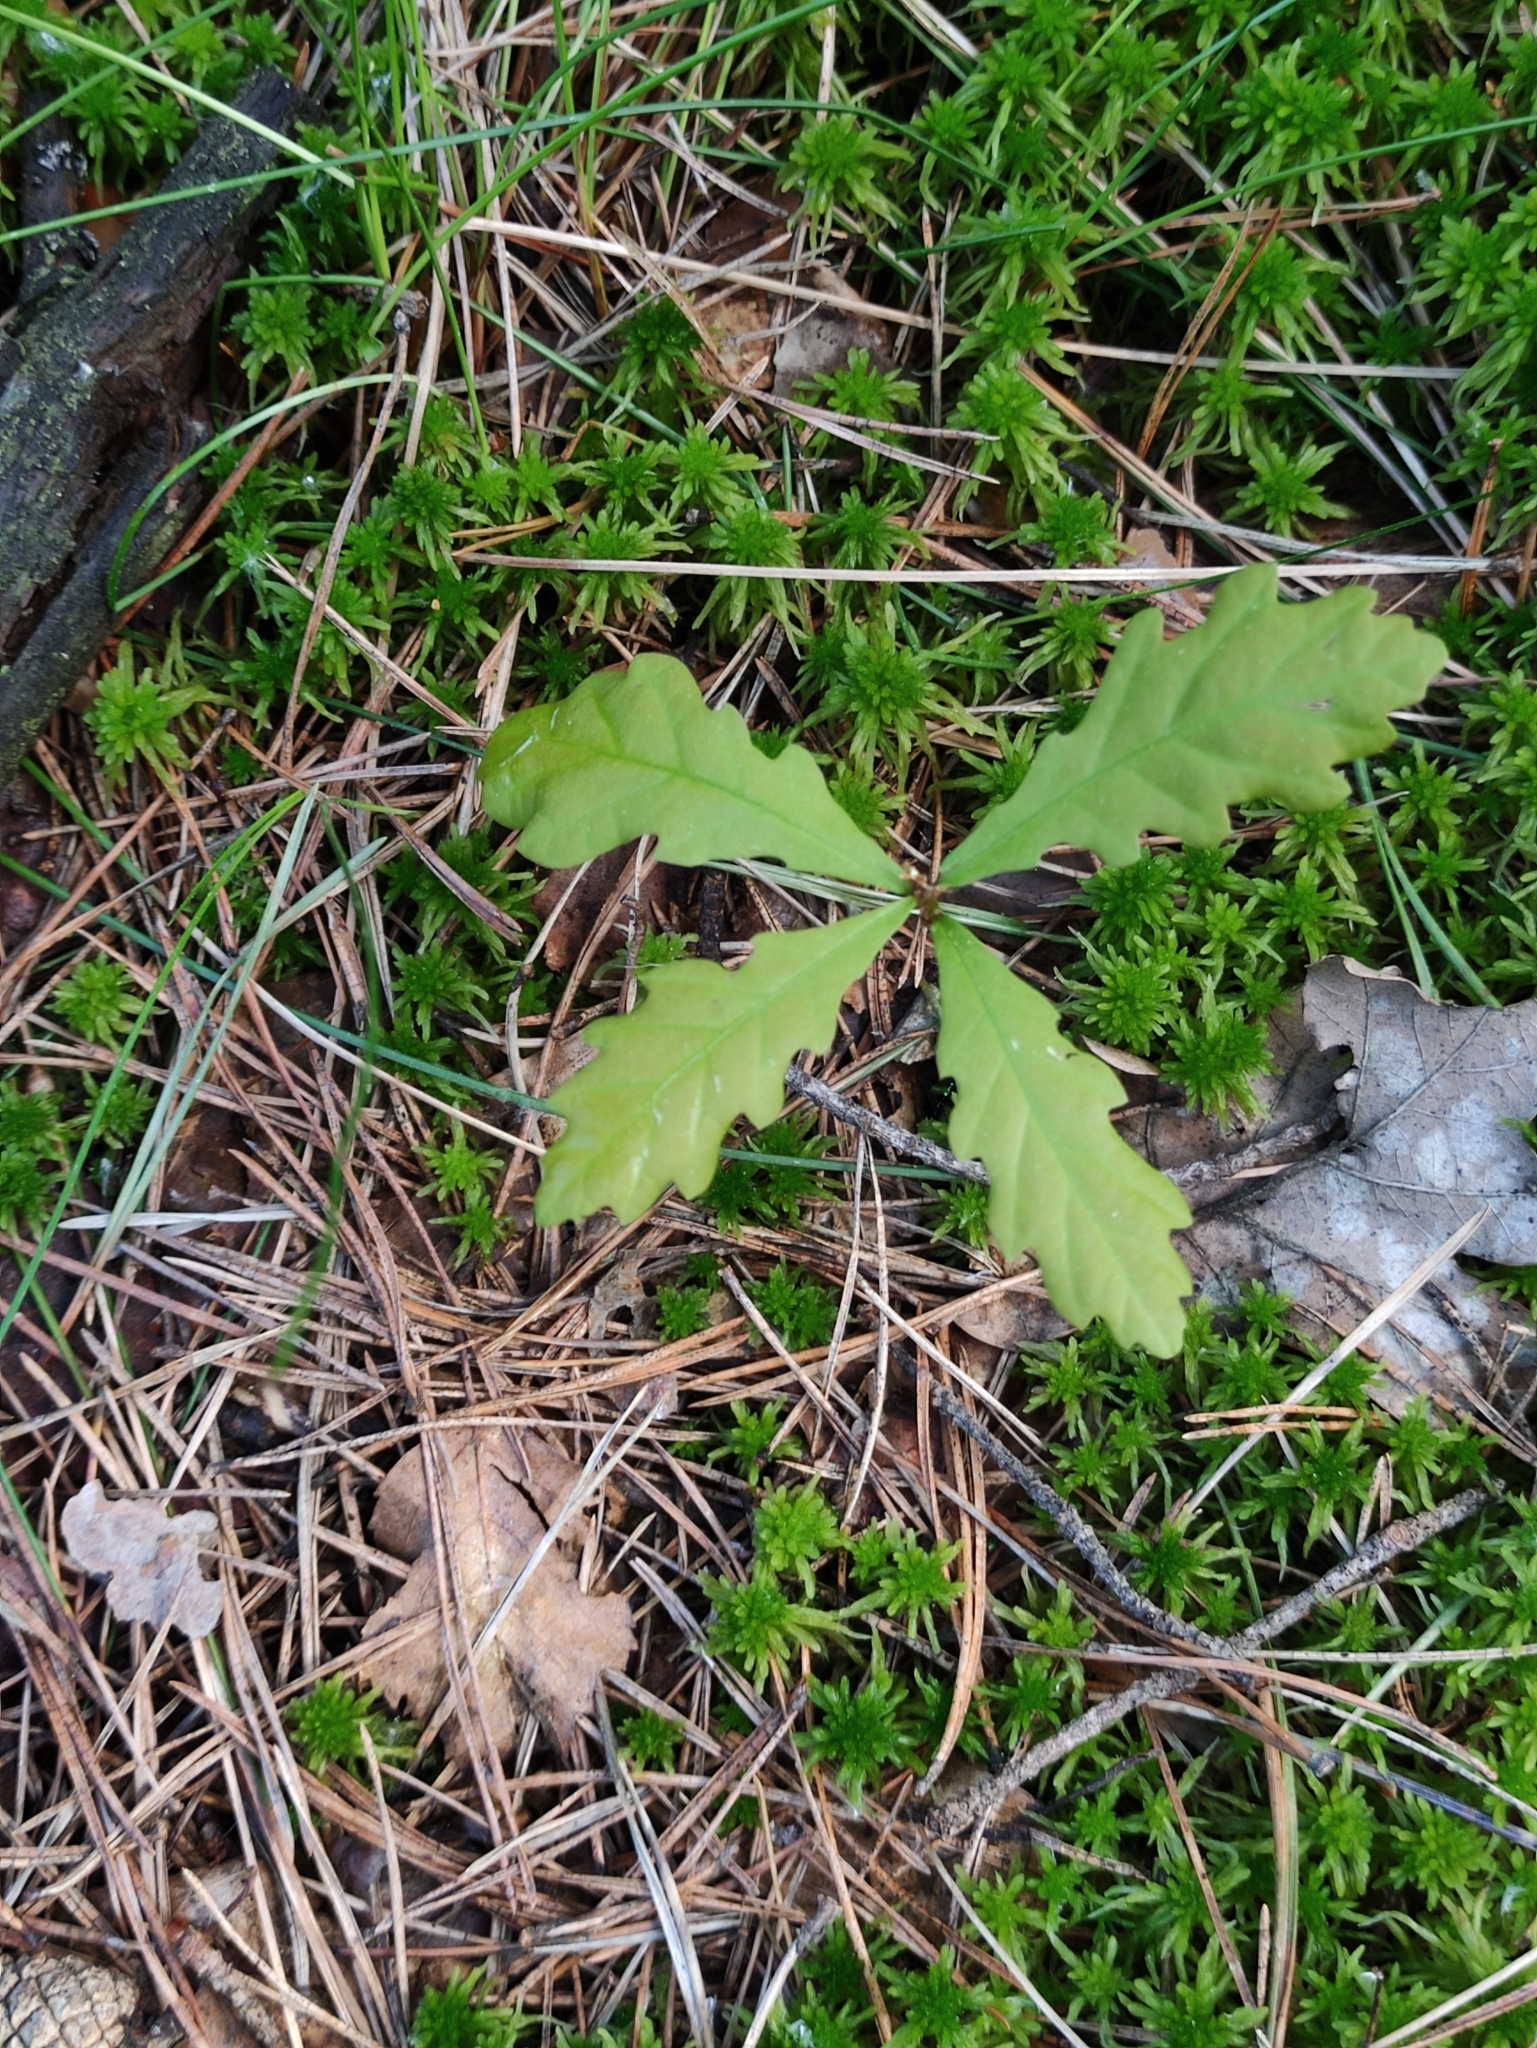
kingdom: Plantae
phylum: Tracheophyta
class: Magnoliopsida
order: Fagales
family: Fagaceae
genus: Quercus
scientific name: Quercus robur
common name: Pedunculate oak
